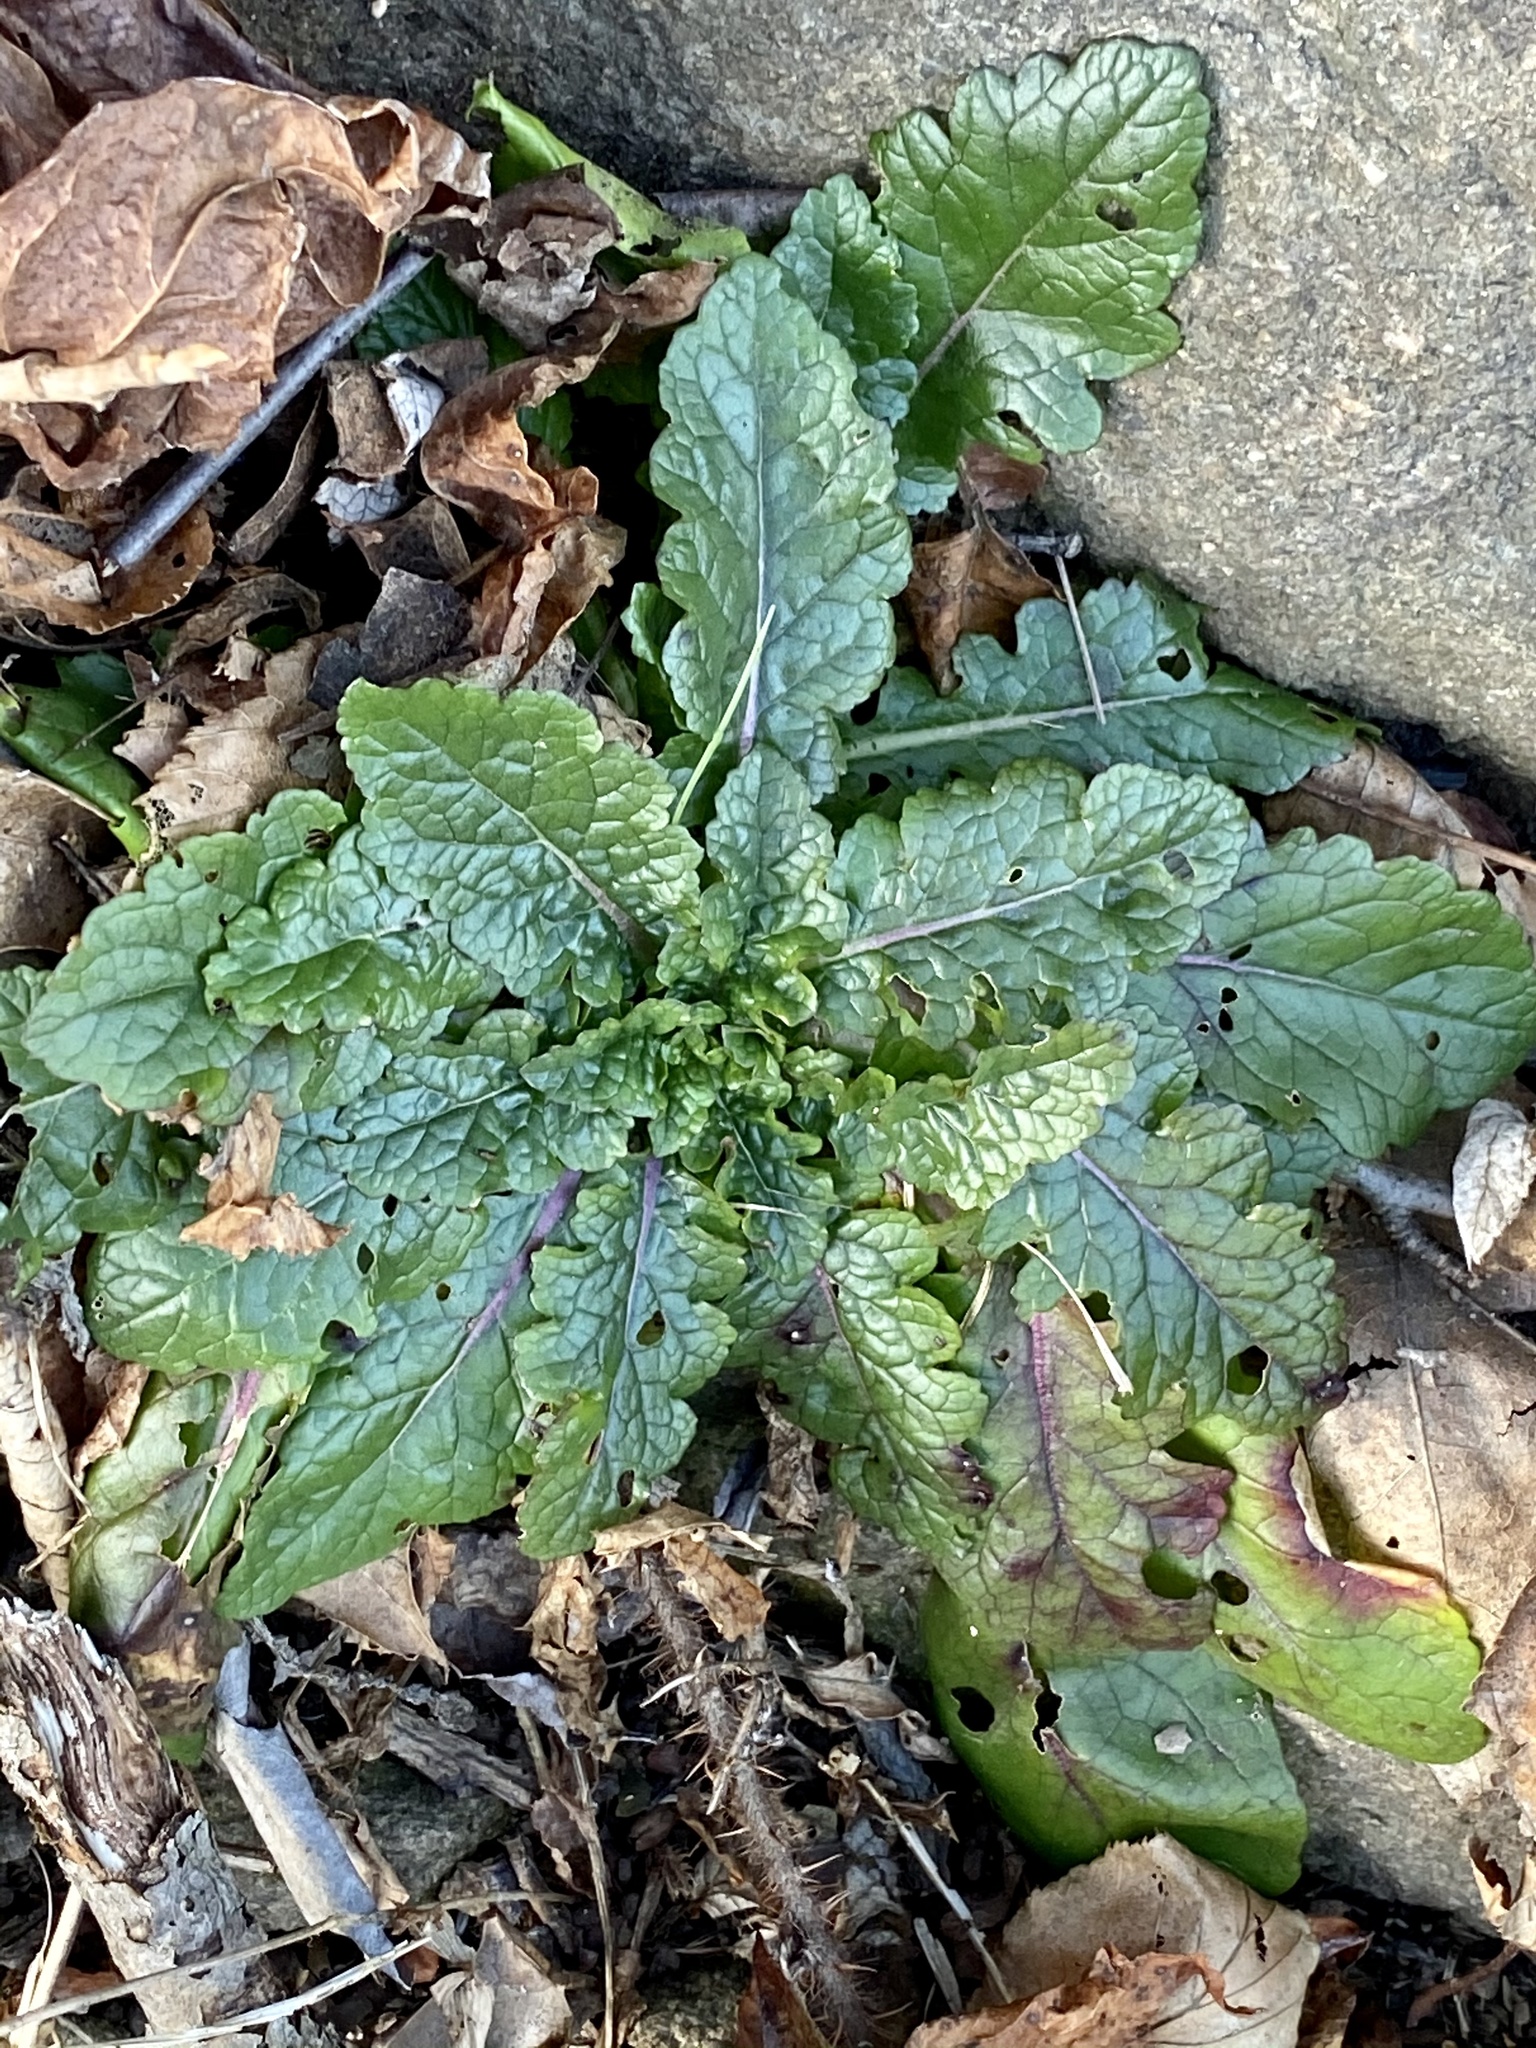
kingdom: Plantae
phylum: Tracheophyta
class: Magnoliopsida
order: Lamiales
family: Scrophulariaceae
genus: Verbascum
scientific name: Verbascum blattaria
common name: Moth mullein
